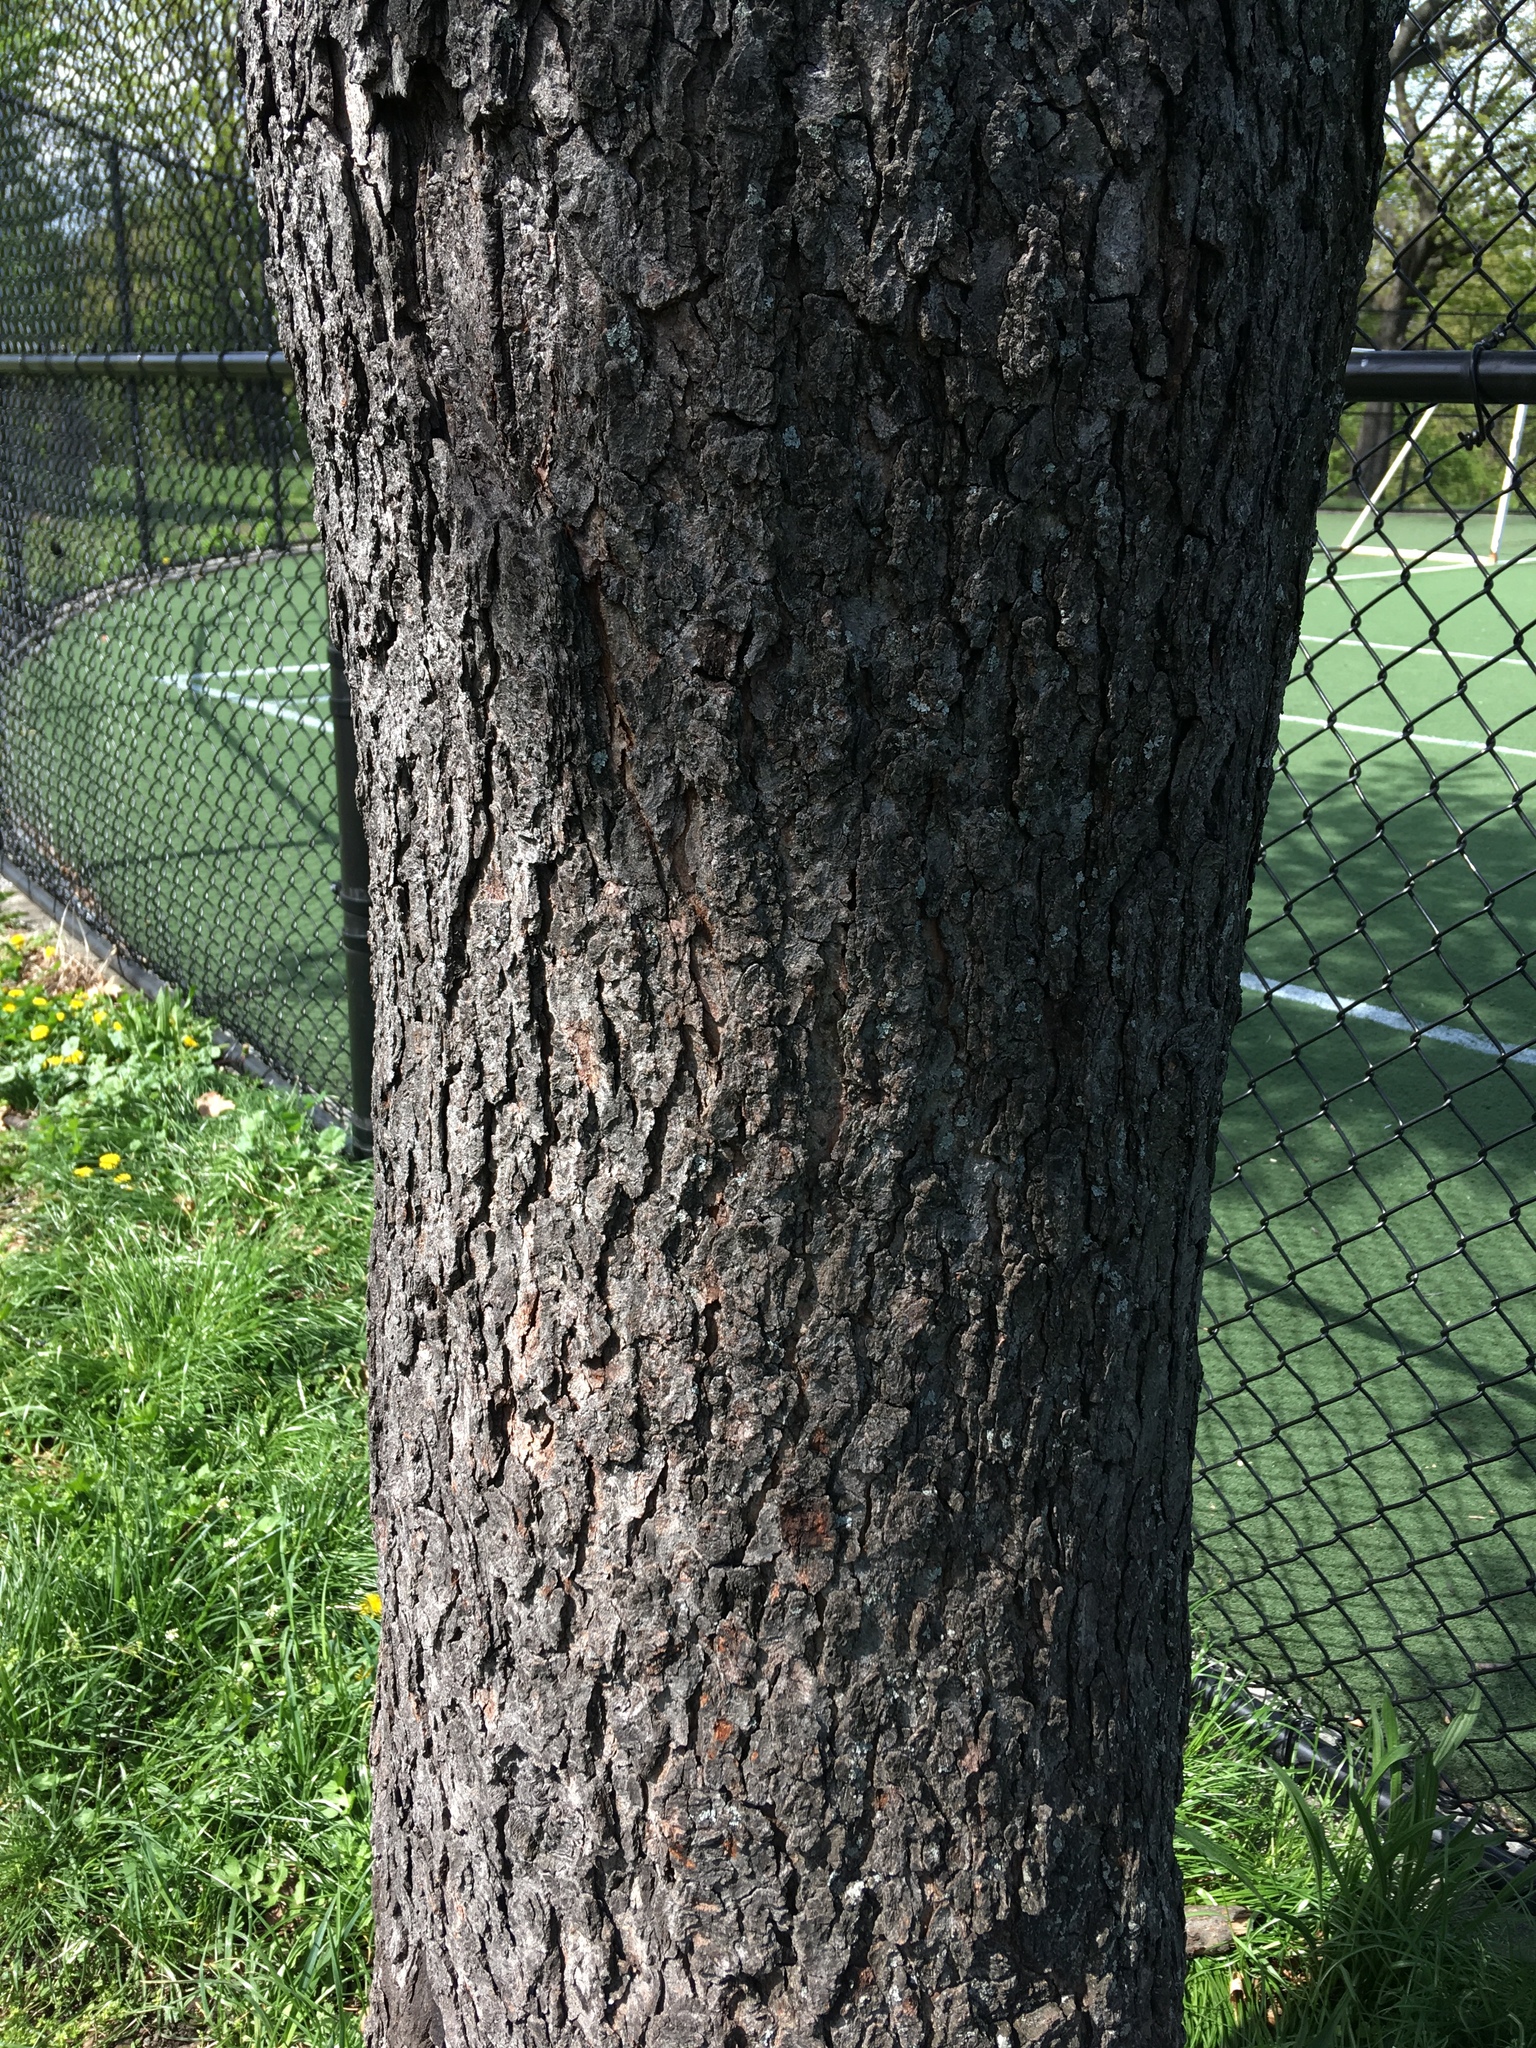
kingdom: Plantae
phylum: Tracheophyta
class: Magnoliopsida
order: Rosales
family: Rosaceae
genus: Prunus
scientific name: Prunus serotina
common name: Black cherry
